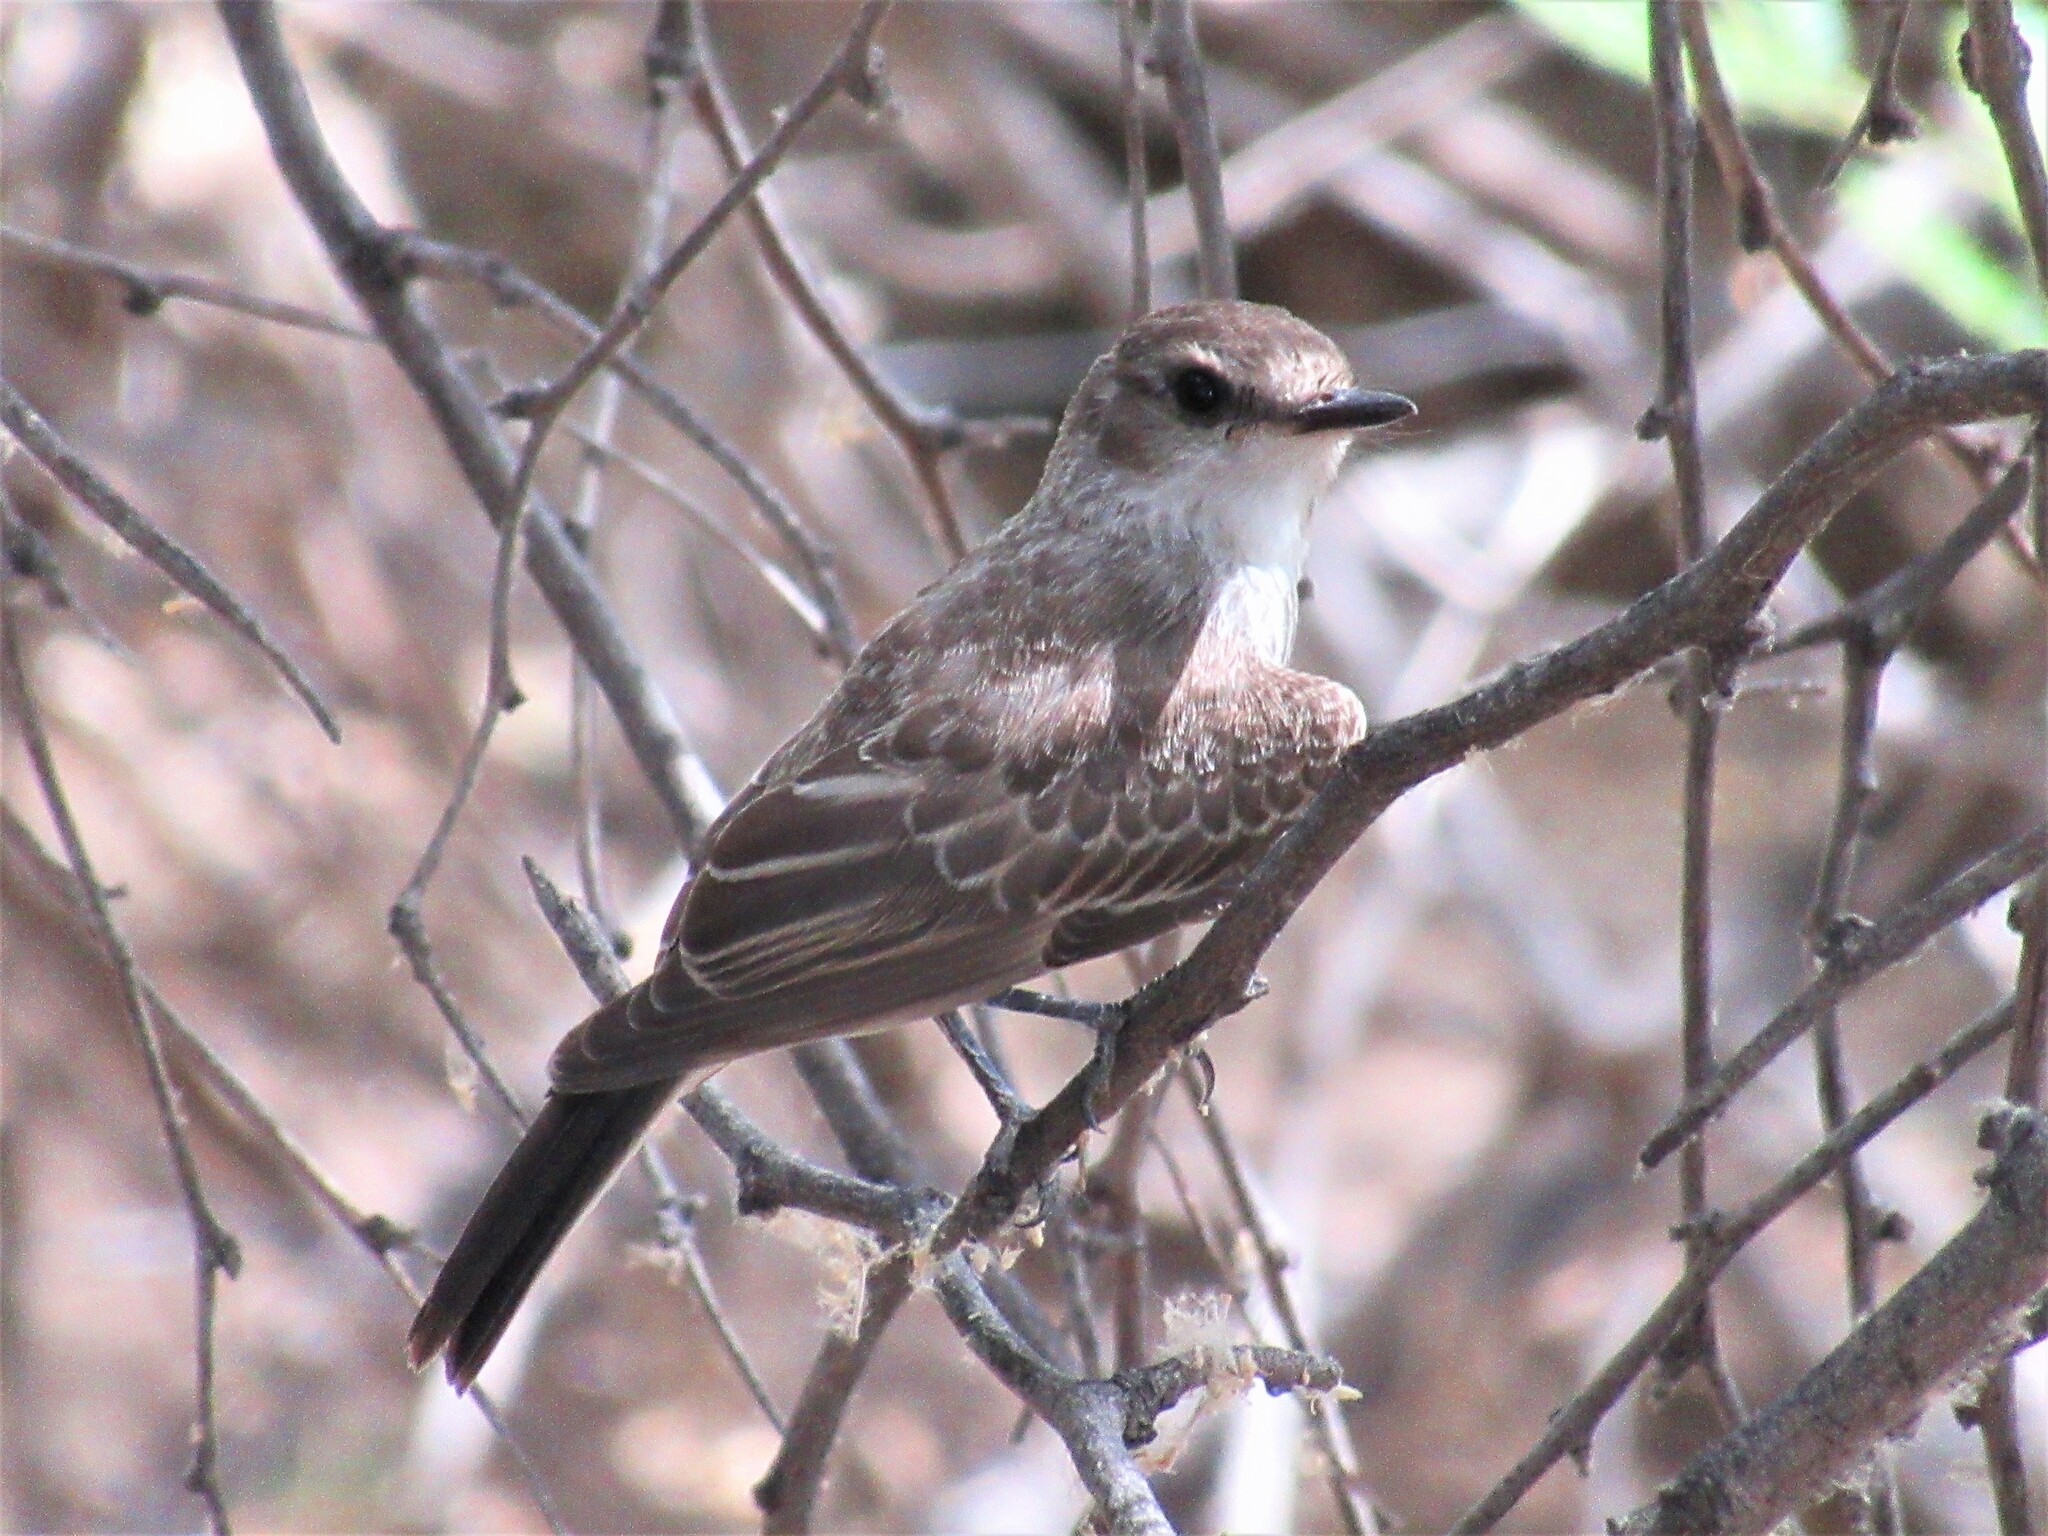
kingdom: Animalia
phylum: Chordata
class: Aves
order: Passeriformes
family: Tyrannidae
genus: Pyrocephalus
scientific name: Pyrocephalus rubinus
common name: Vermilion flycatcher
